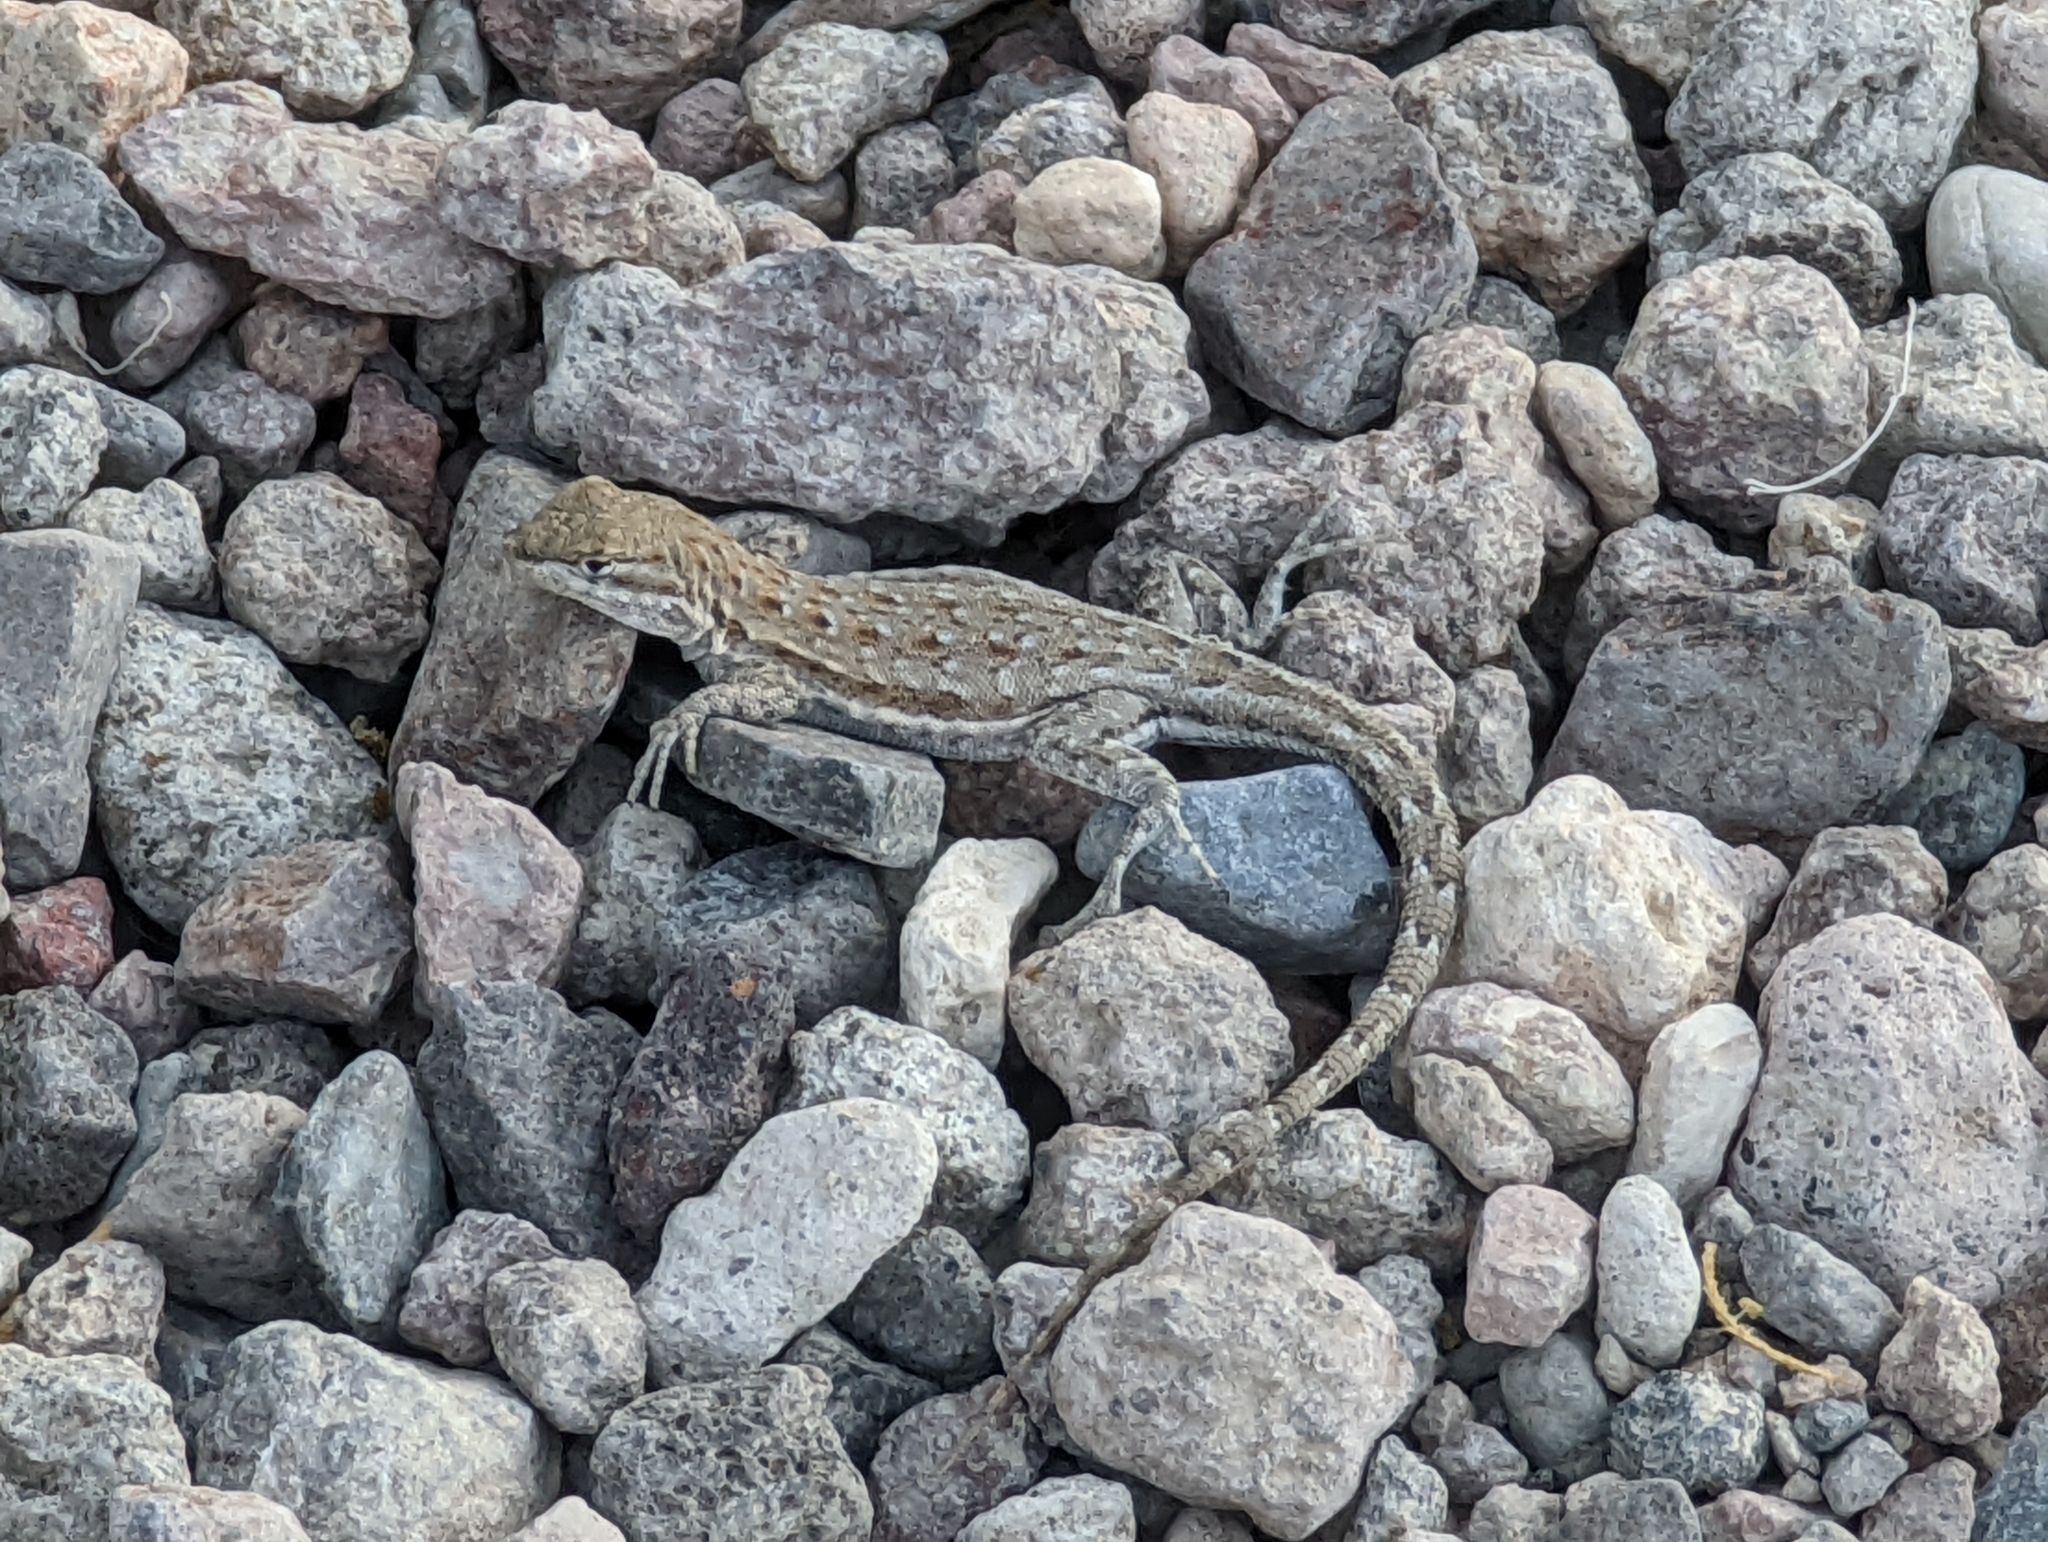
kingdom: Animalia
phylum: Chordata
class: Squamata
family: Phrynosomatidae
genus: Uta
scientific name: Uta stansburiana
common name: Side-blotched lizard
